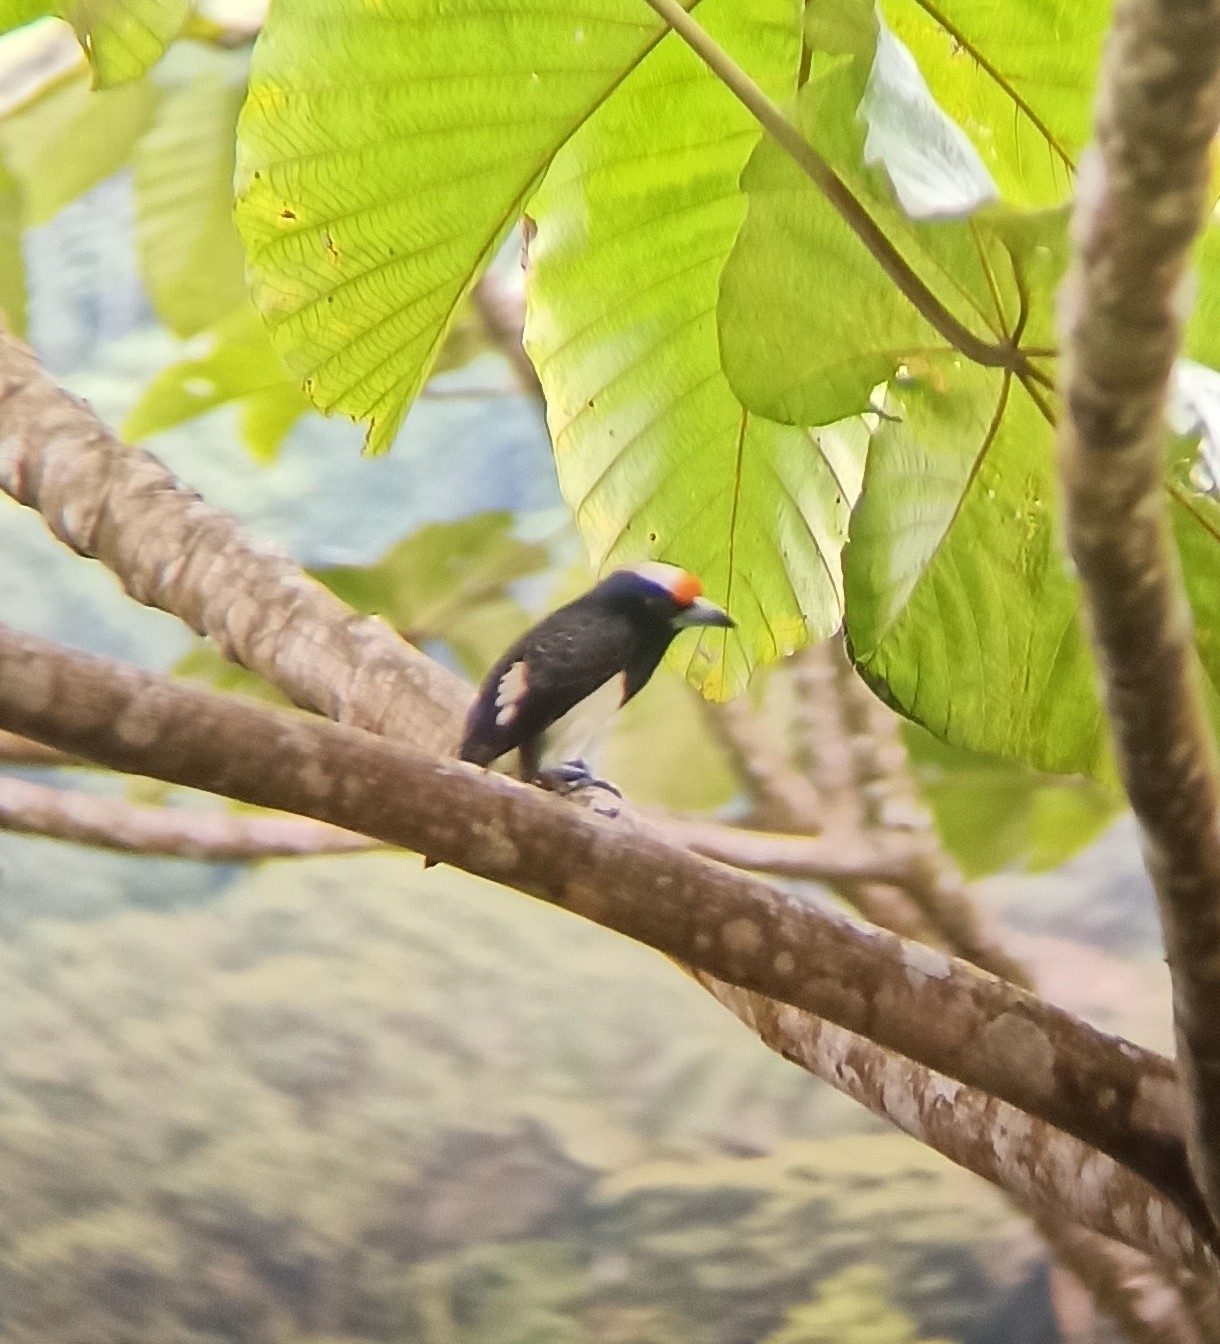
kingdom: Animalia
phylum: Chordata
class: Aves
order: Piciformes
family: Capitonidae
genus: Capito
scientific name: Capito squamatus
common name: Orange-fronted barbet
